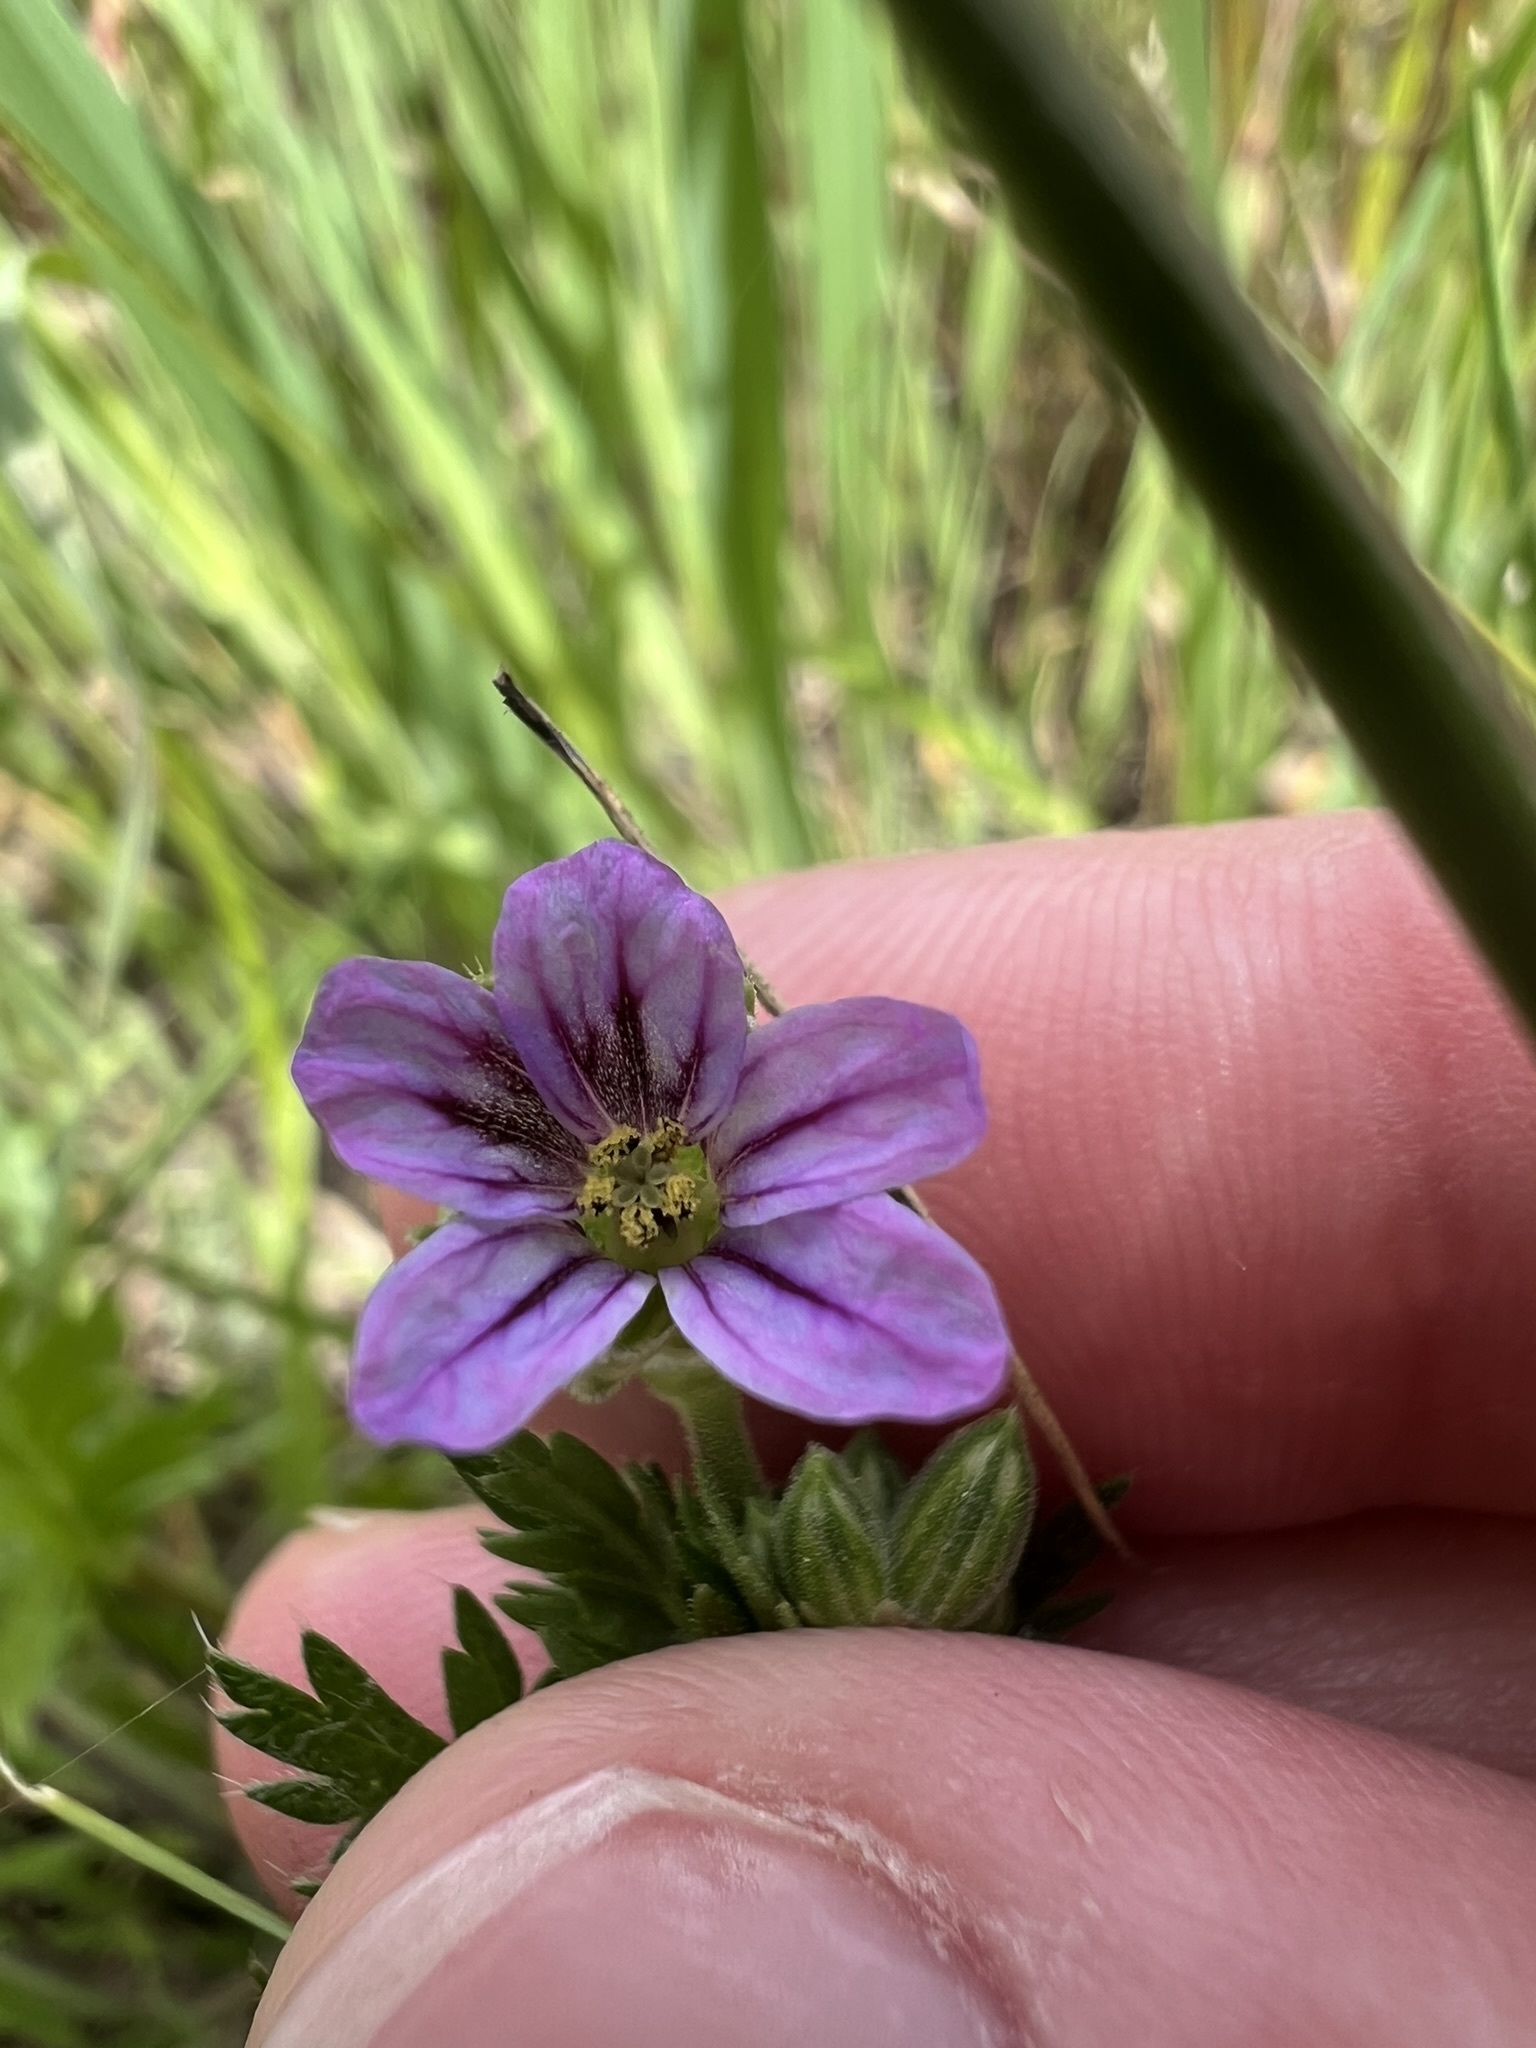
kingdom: Plantae
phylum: Tracheophyta
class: Magnoliopsida
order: Geraniales
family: Geraniaceae
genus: Erodium
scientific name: Erodium brachycarpum
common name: Hairy-pitted stork's-bill
